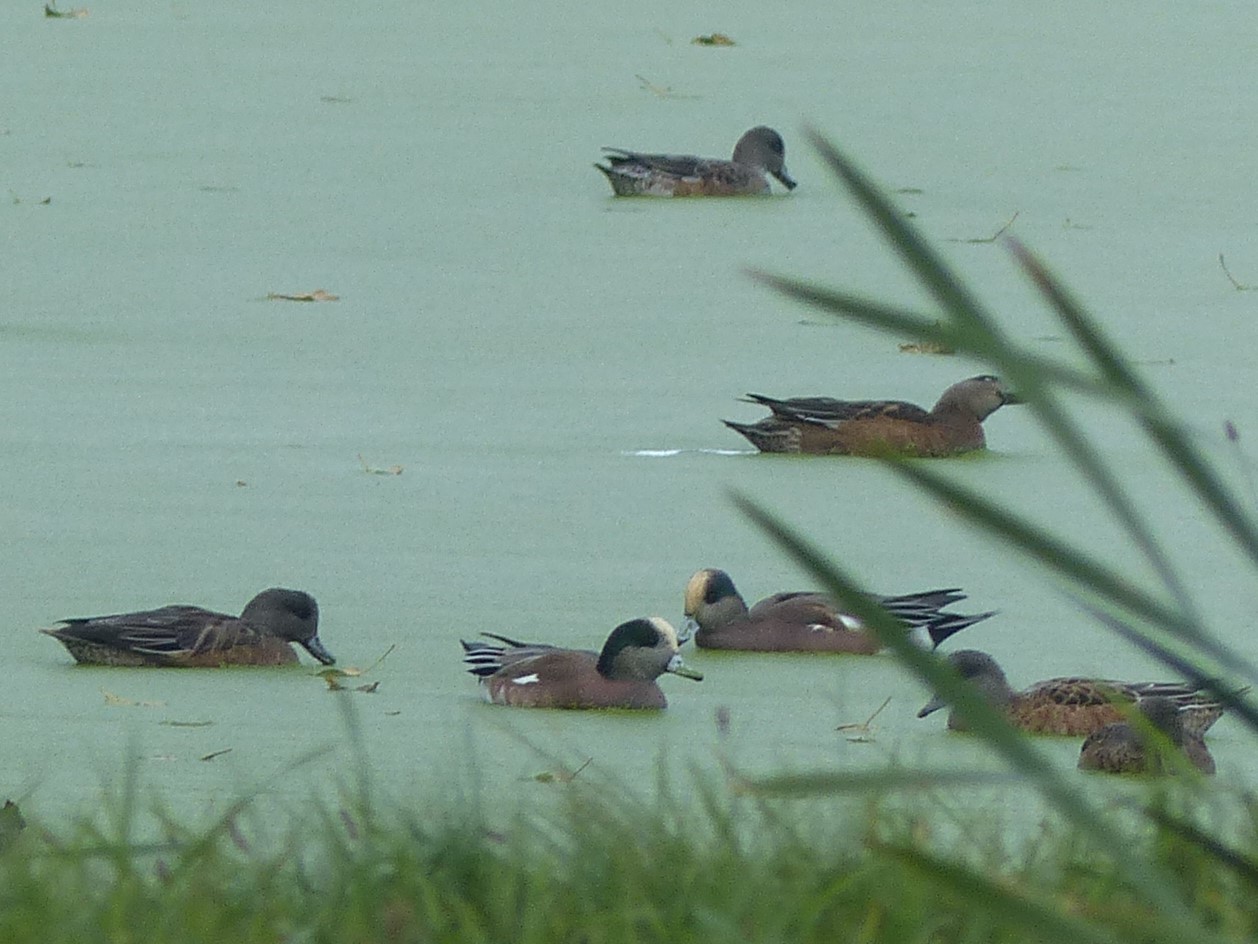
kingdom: Animalia
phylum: Chordata
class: Aves
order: Anseriformes
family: Anatidae
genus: Mareca
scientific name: Mareca americana
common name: American wigeon
